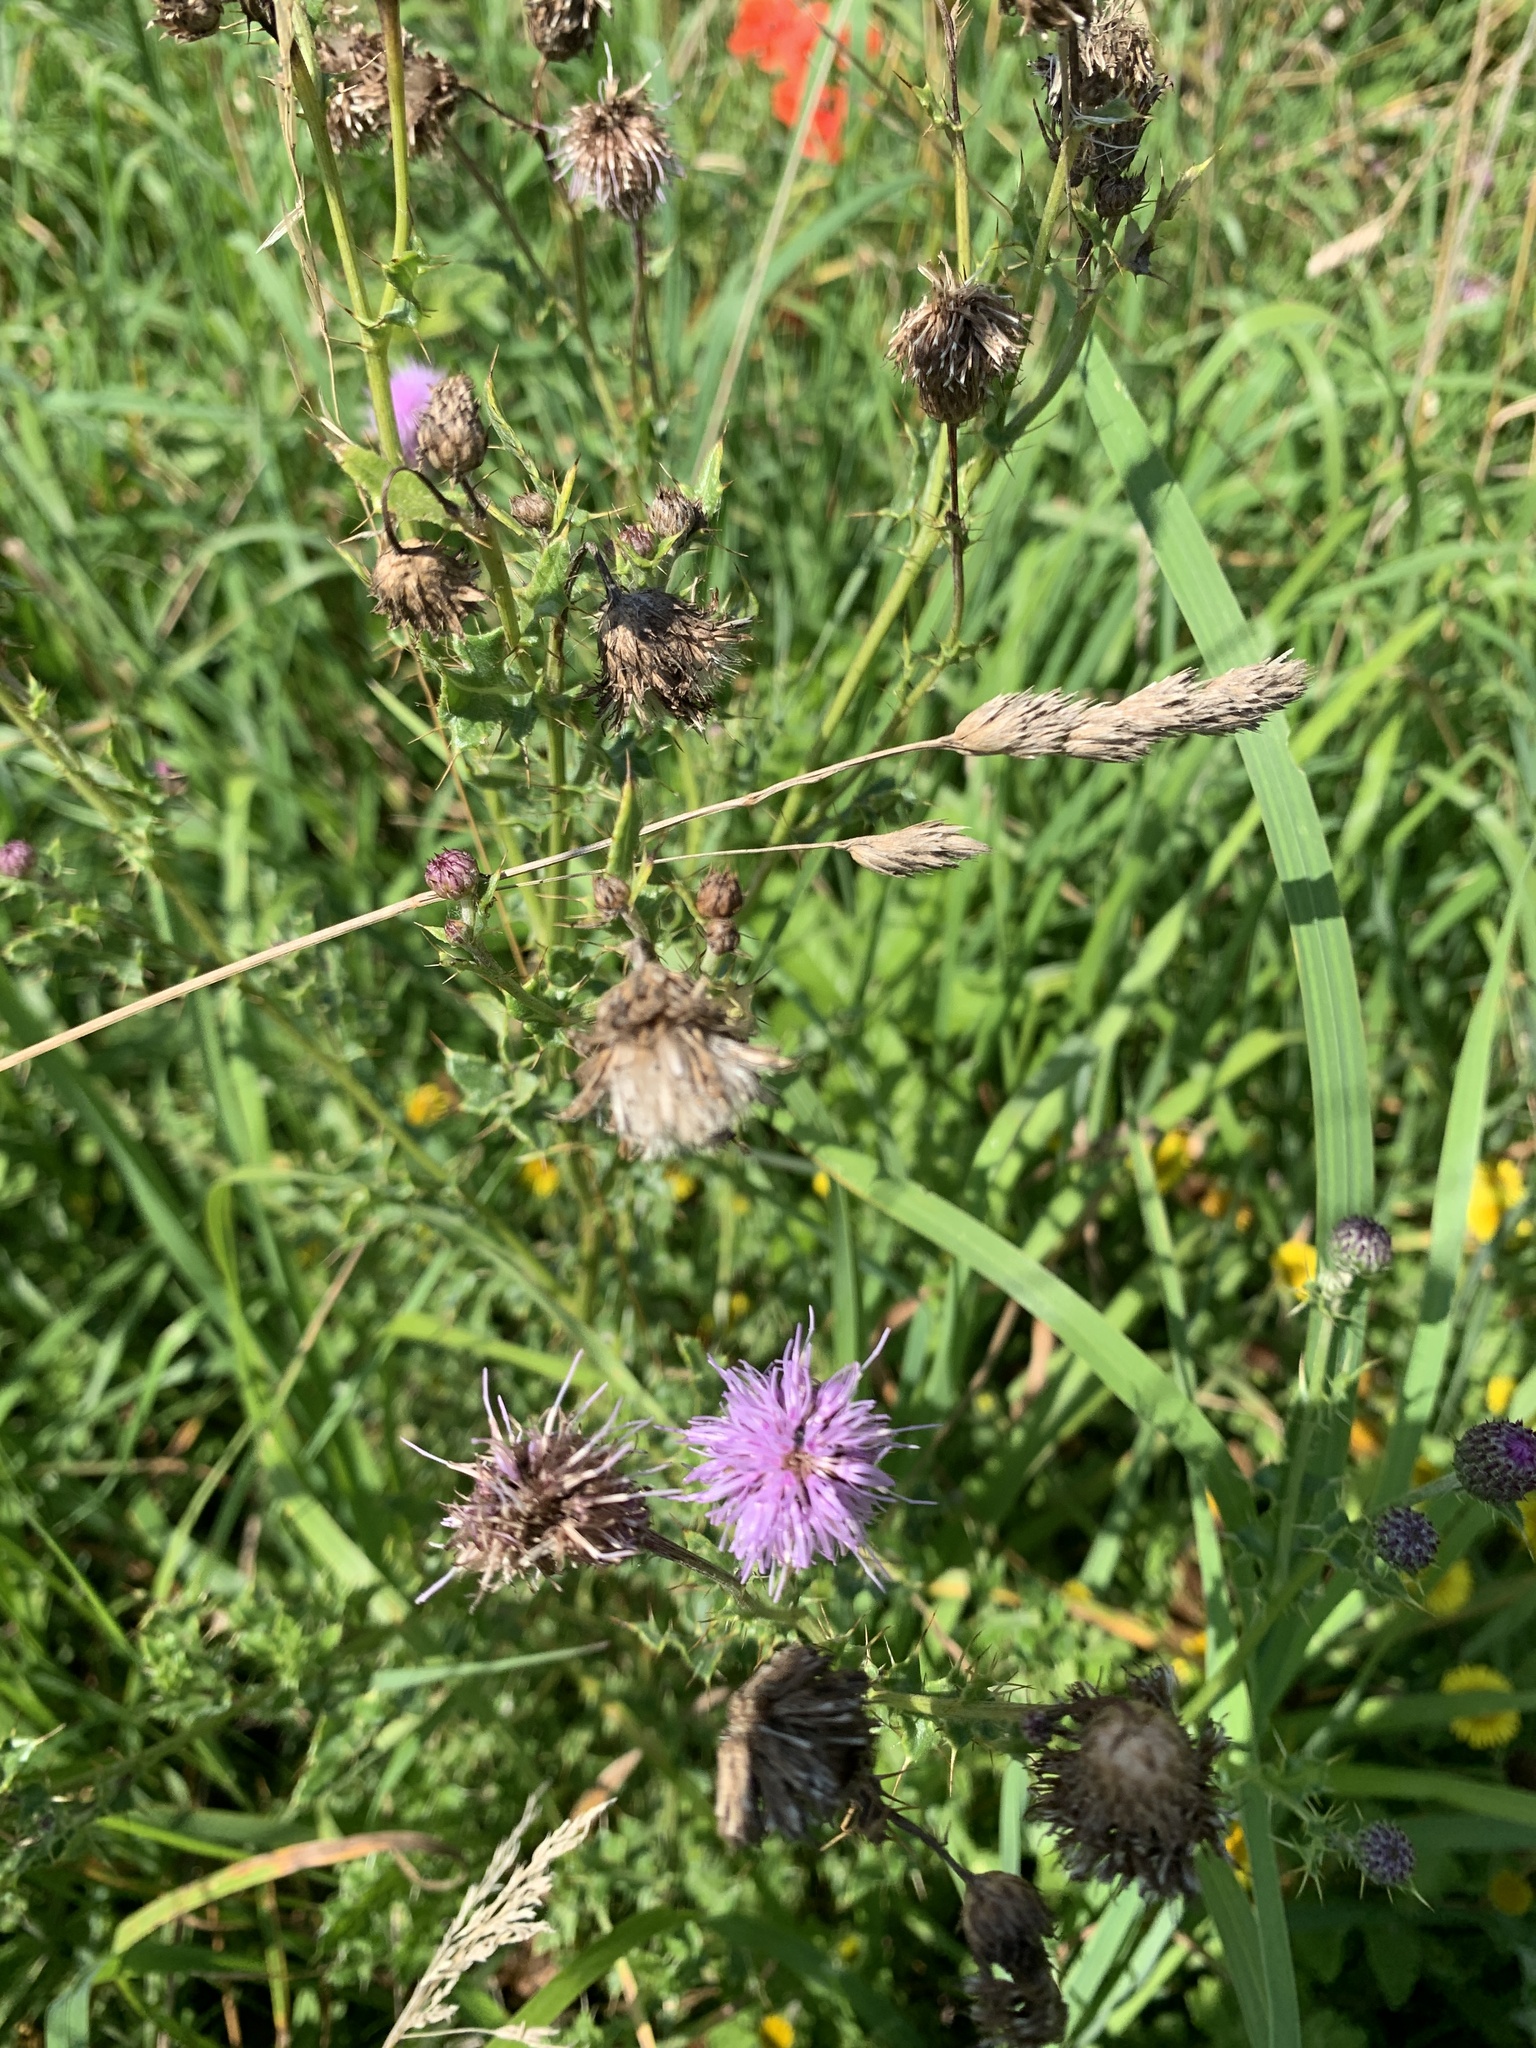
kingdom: Plantae
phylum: Tracheophyta
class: Magnoliopsida
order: Asterales
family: Asteraceae
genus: Cirsium
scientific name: Cirsium arvense
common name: Creeping thistle
